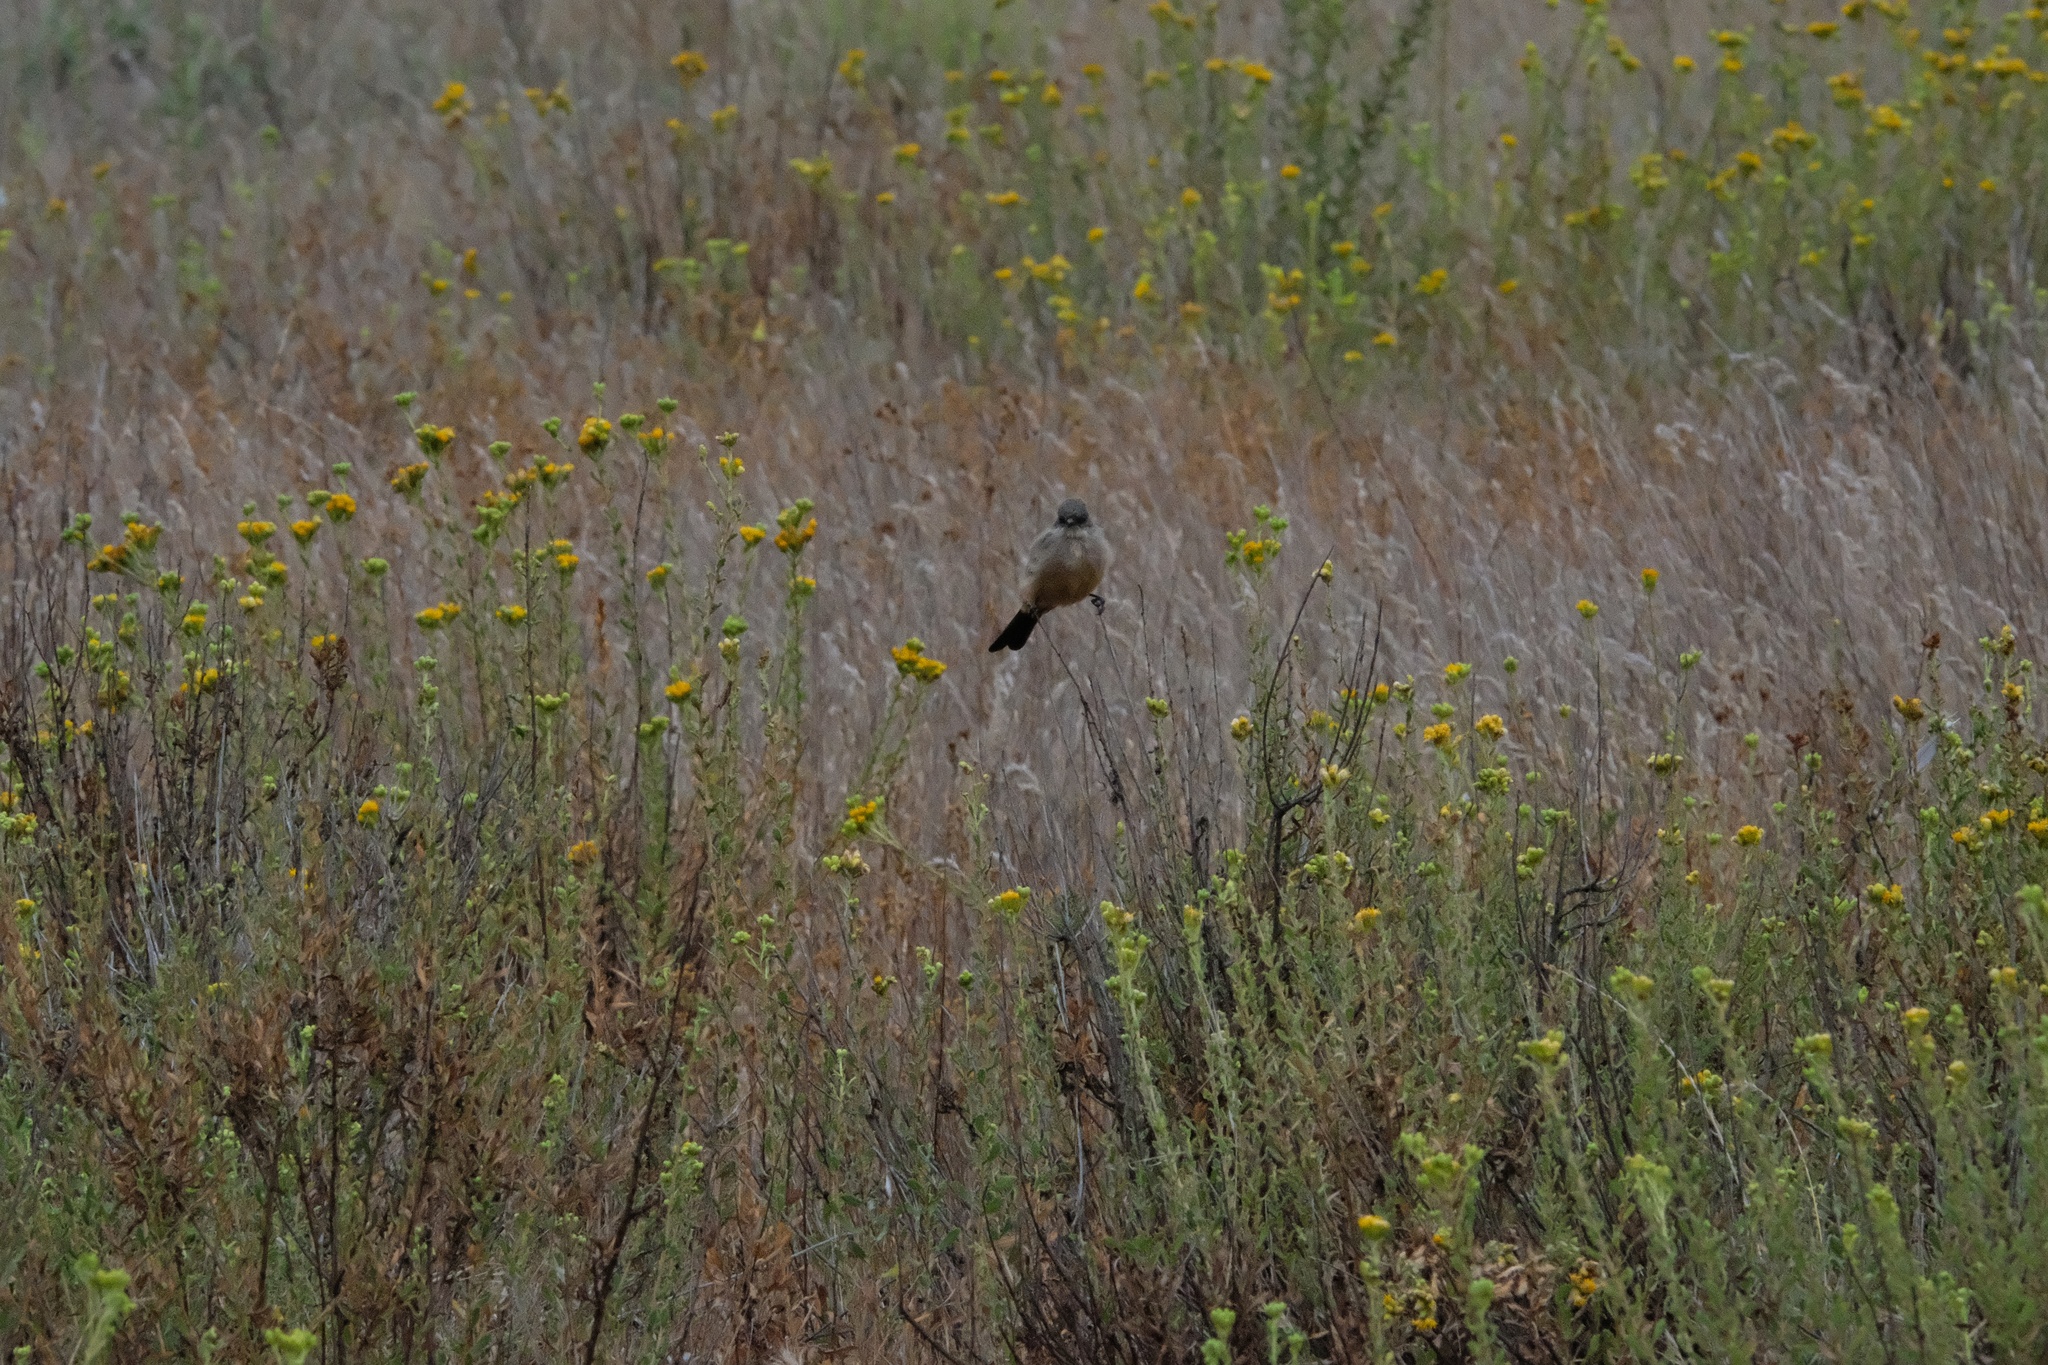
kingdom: Animalia
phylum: Chordata
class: Aves
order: Passeriformes
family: Tyrannidae
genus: Sayornis
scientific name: Sayornis saya
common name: Say's phoebe
